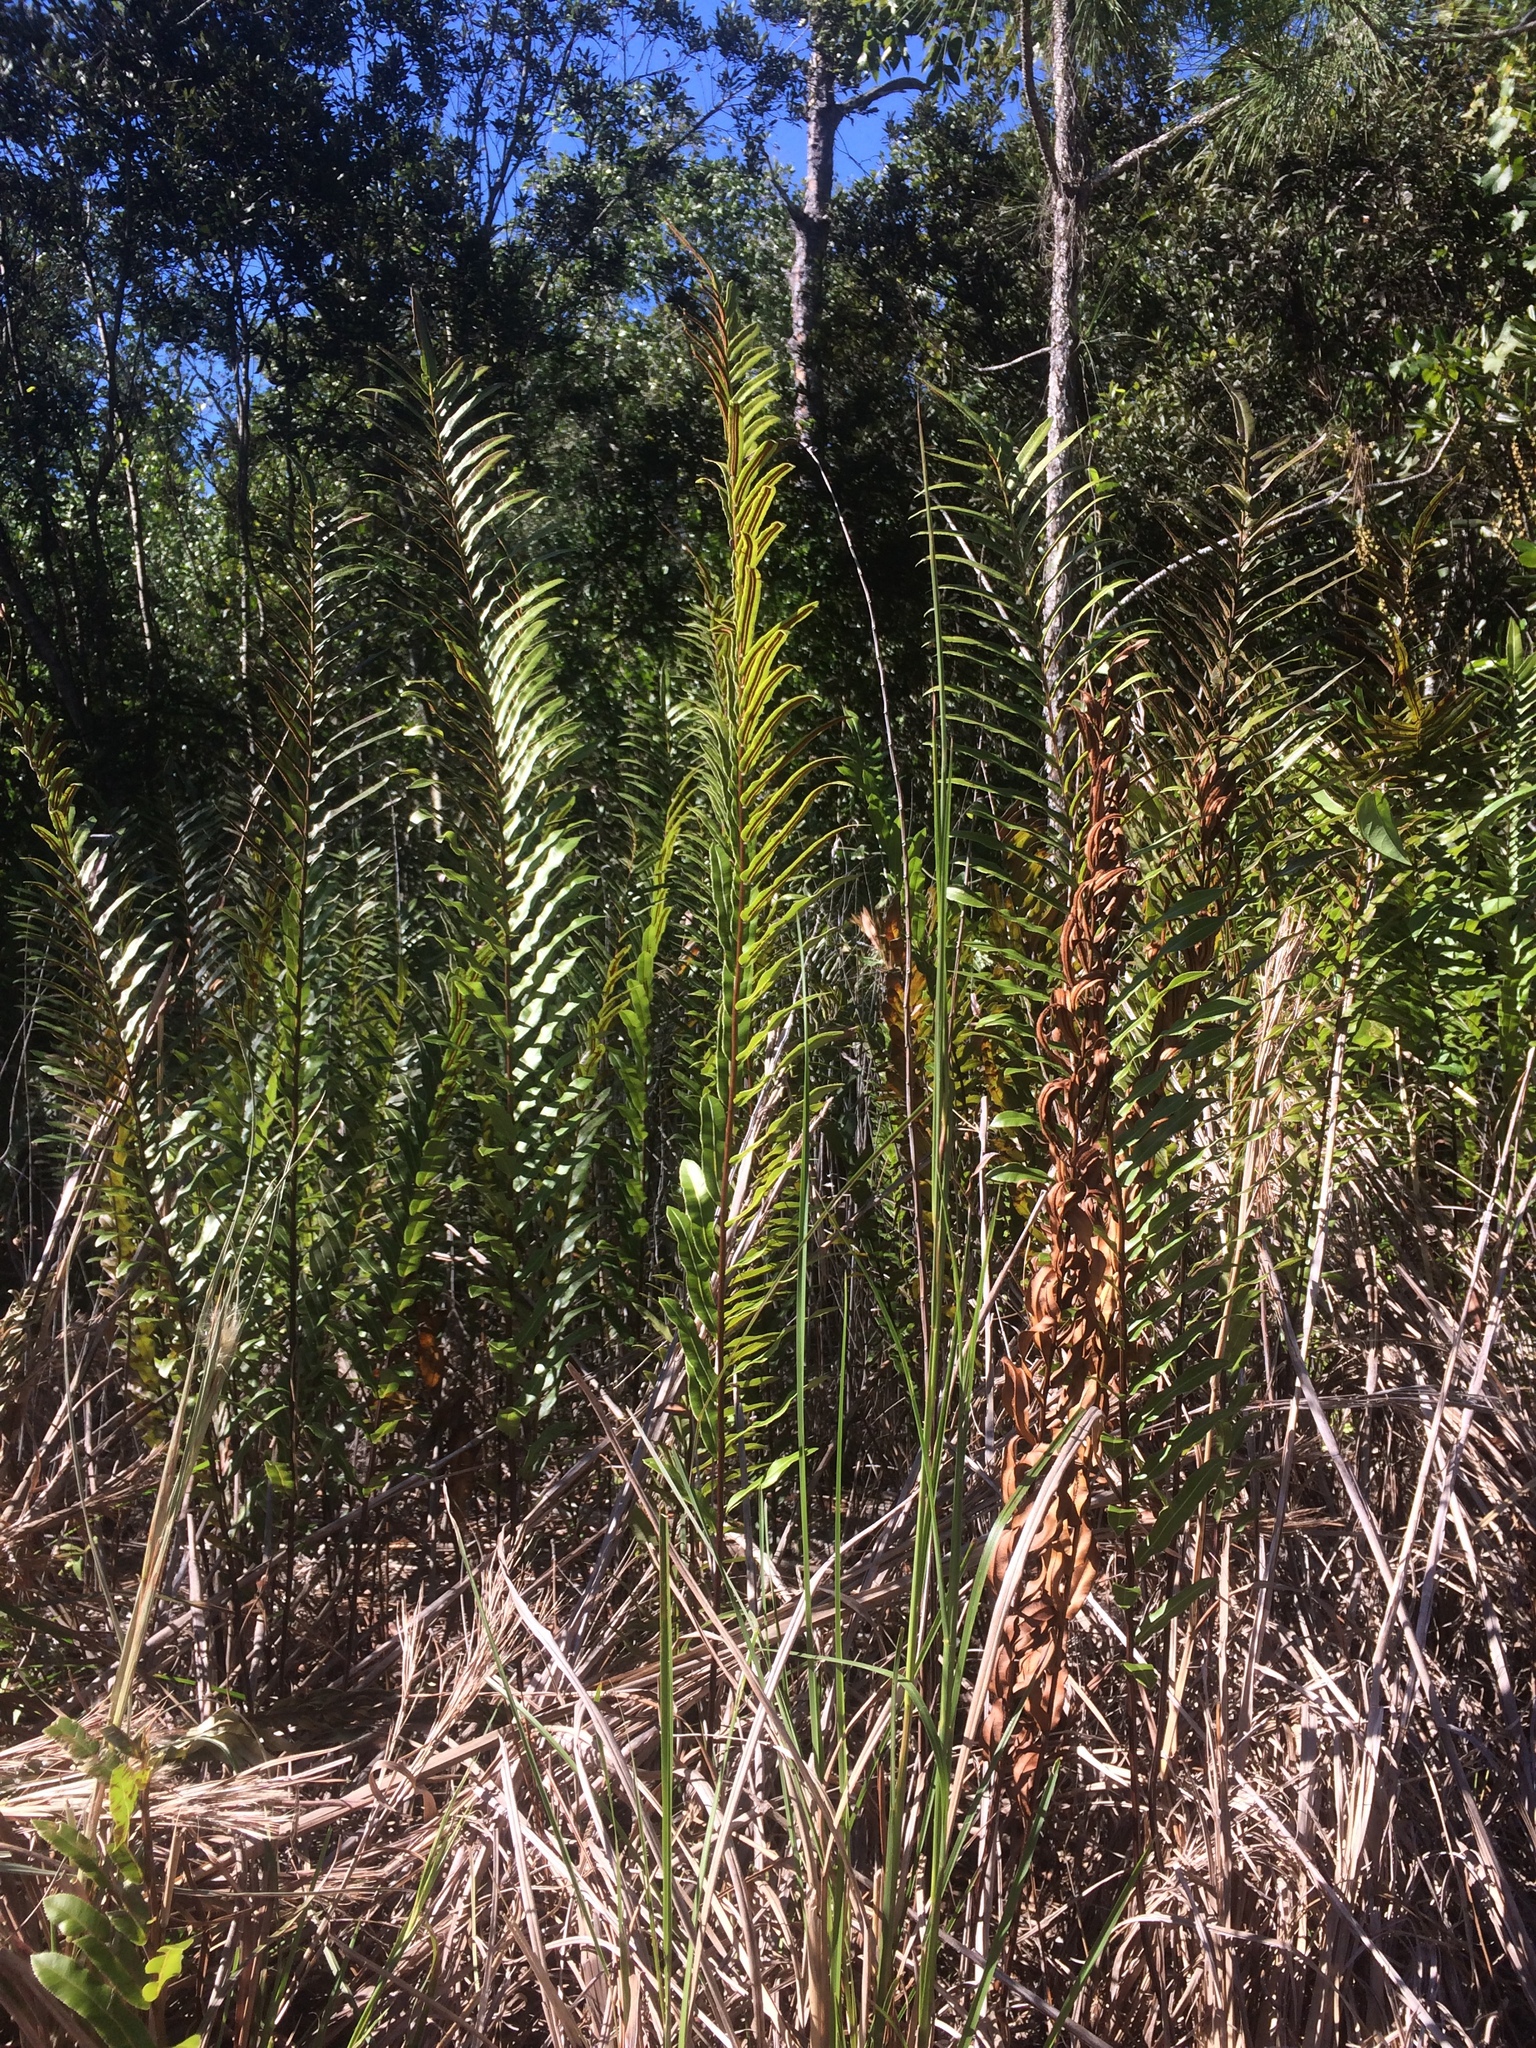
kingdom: Plantae
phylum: Tracheophyta
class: Polypodiopsida
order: Polypodiales
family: Blechnaceae
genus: Telmatoblechnum
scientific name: Telmatoblechnum serrulatum
